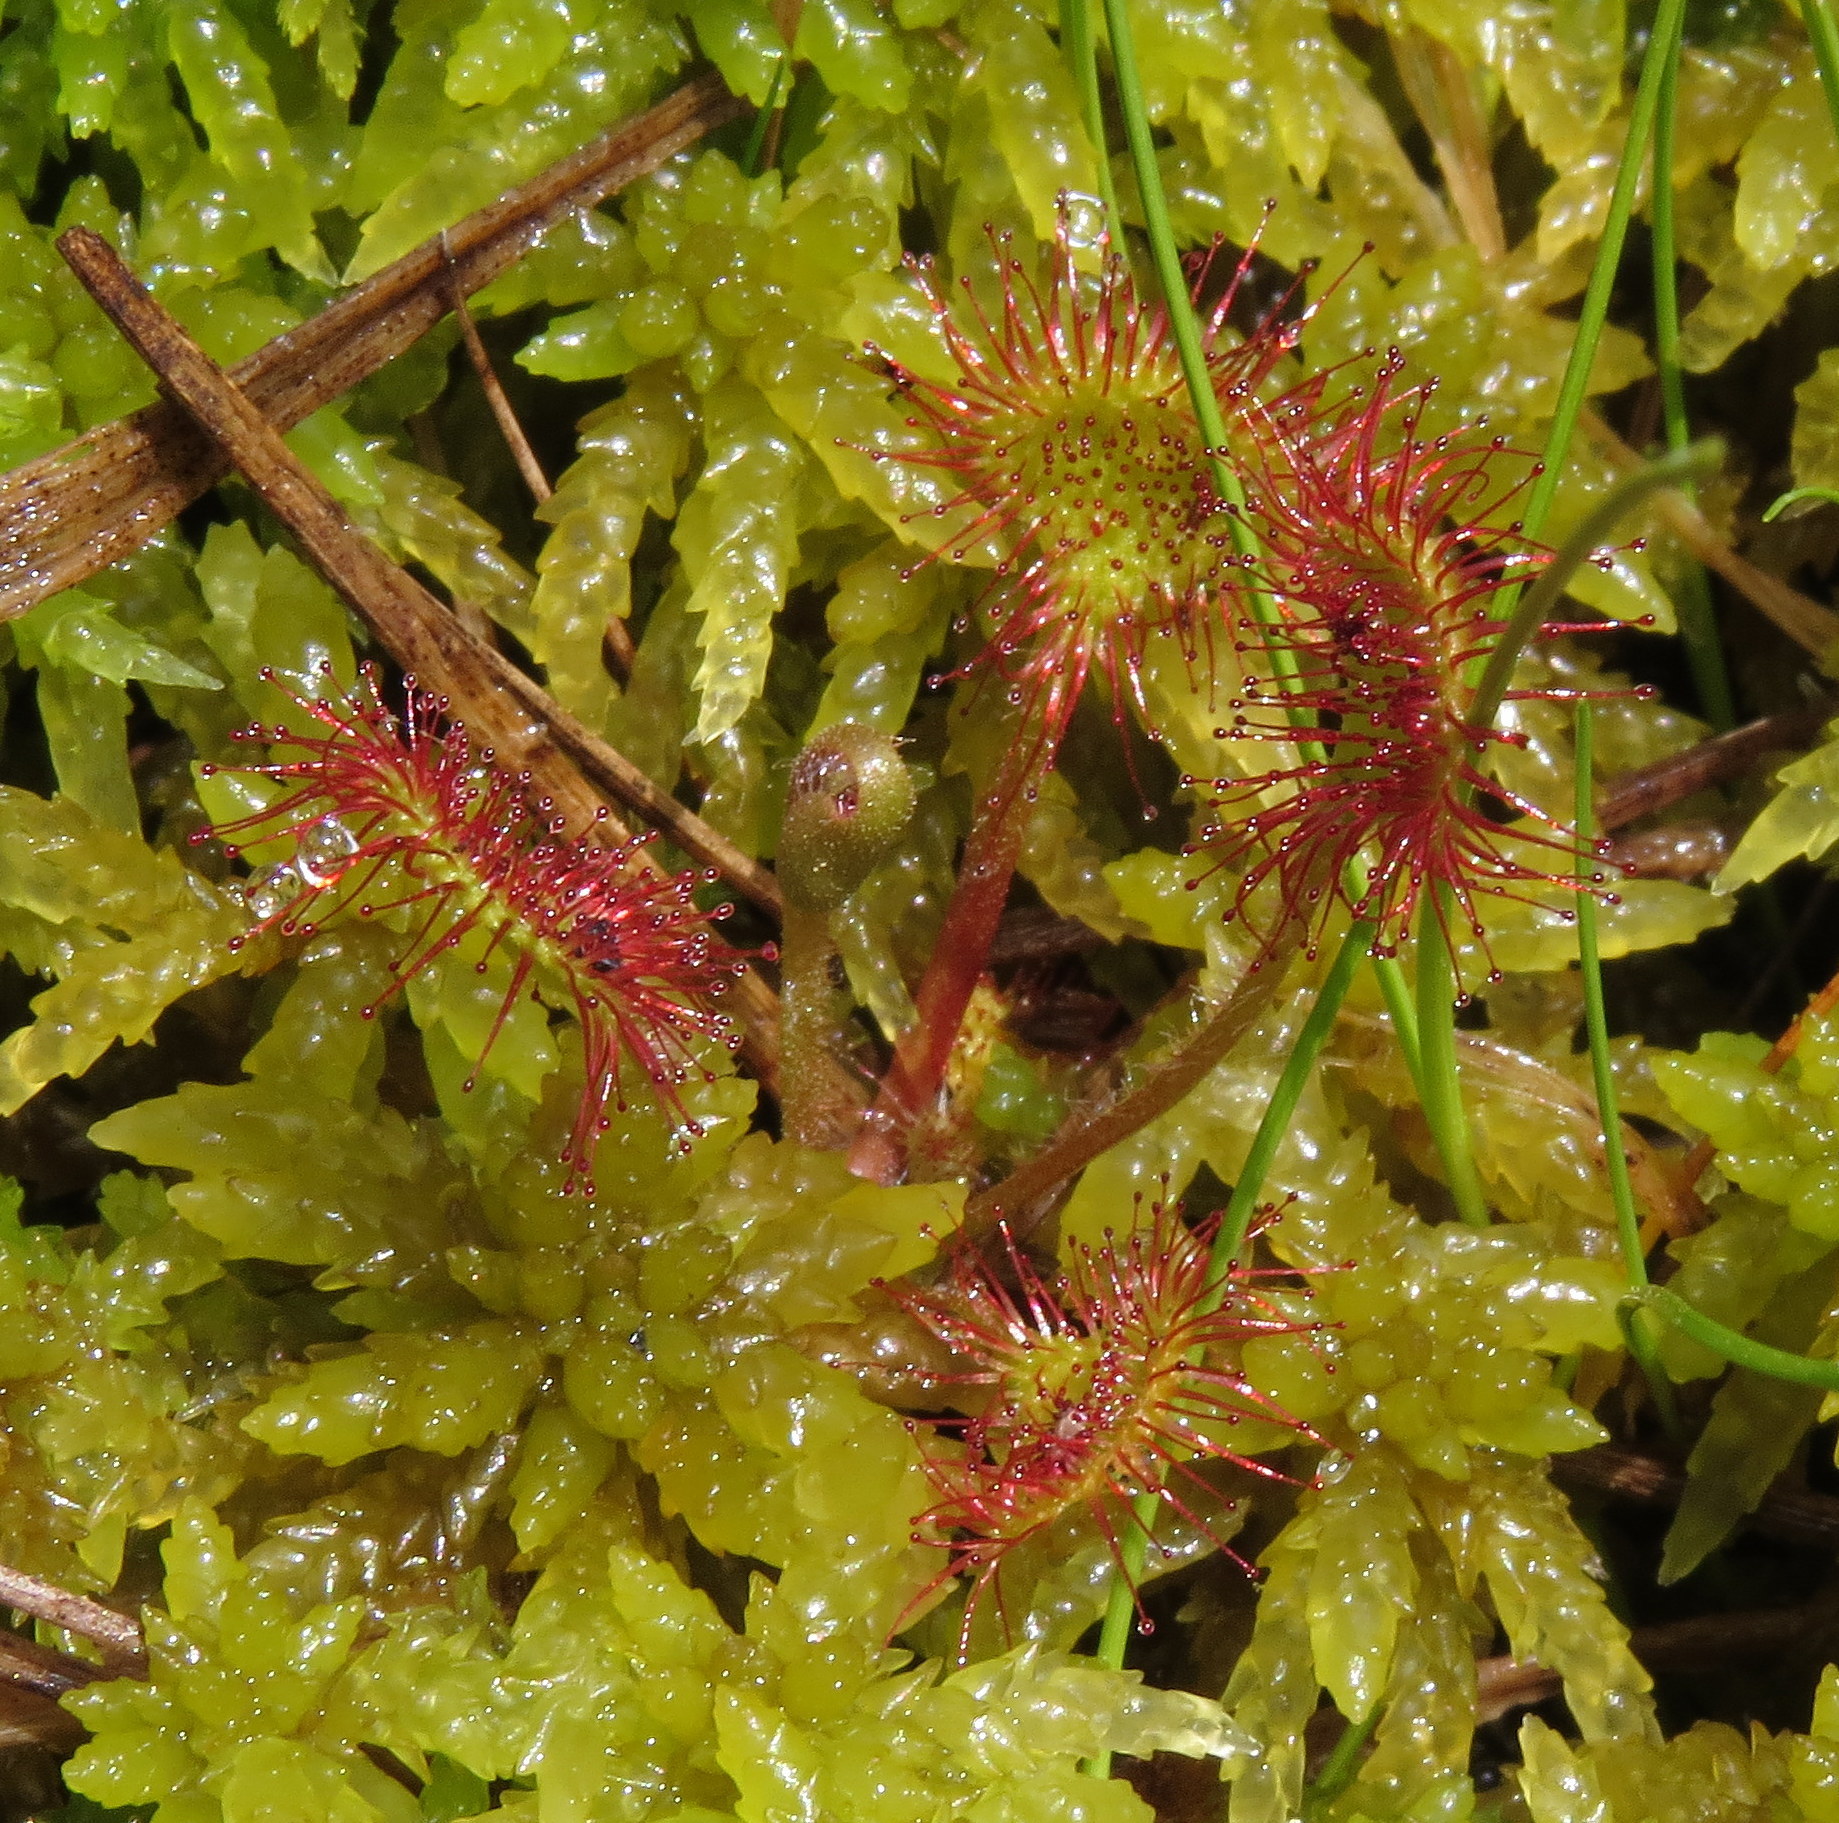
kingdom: Plantae
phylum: Tracheophyta
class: Magnoliopsida
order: Caryophyllales
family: Droseraceae
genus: Drosera
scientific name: Drosera rotundifolia
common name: Round-leaved sundew
